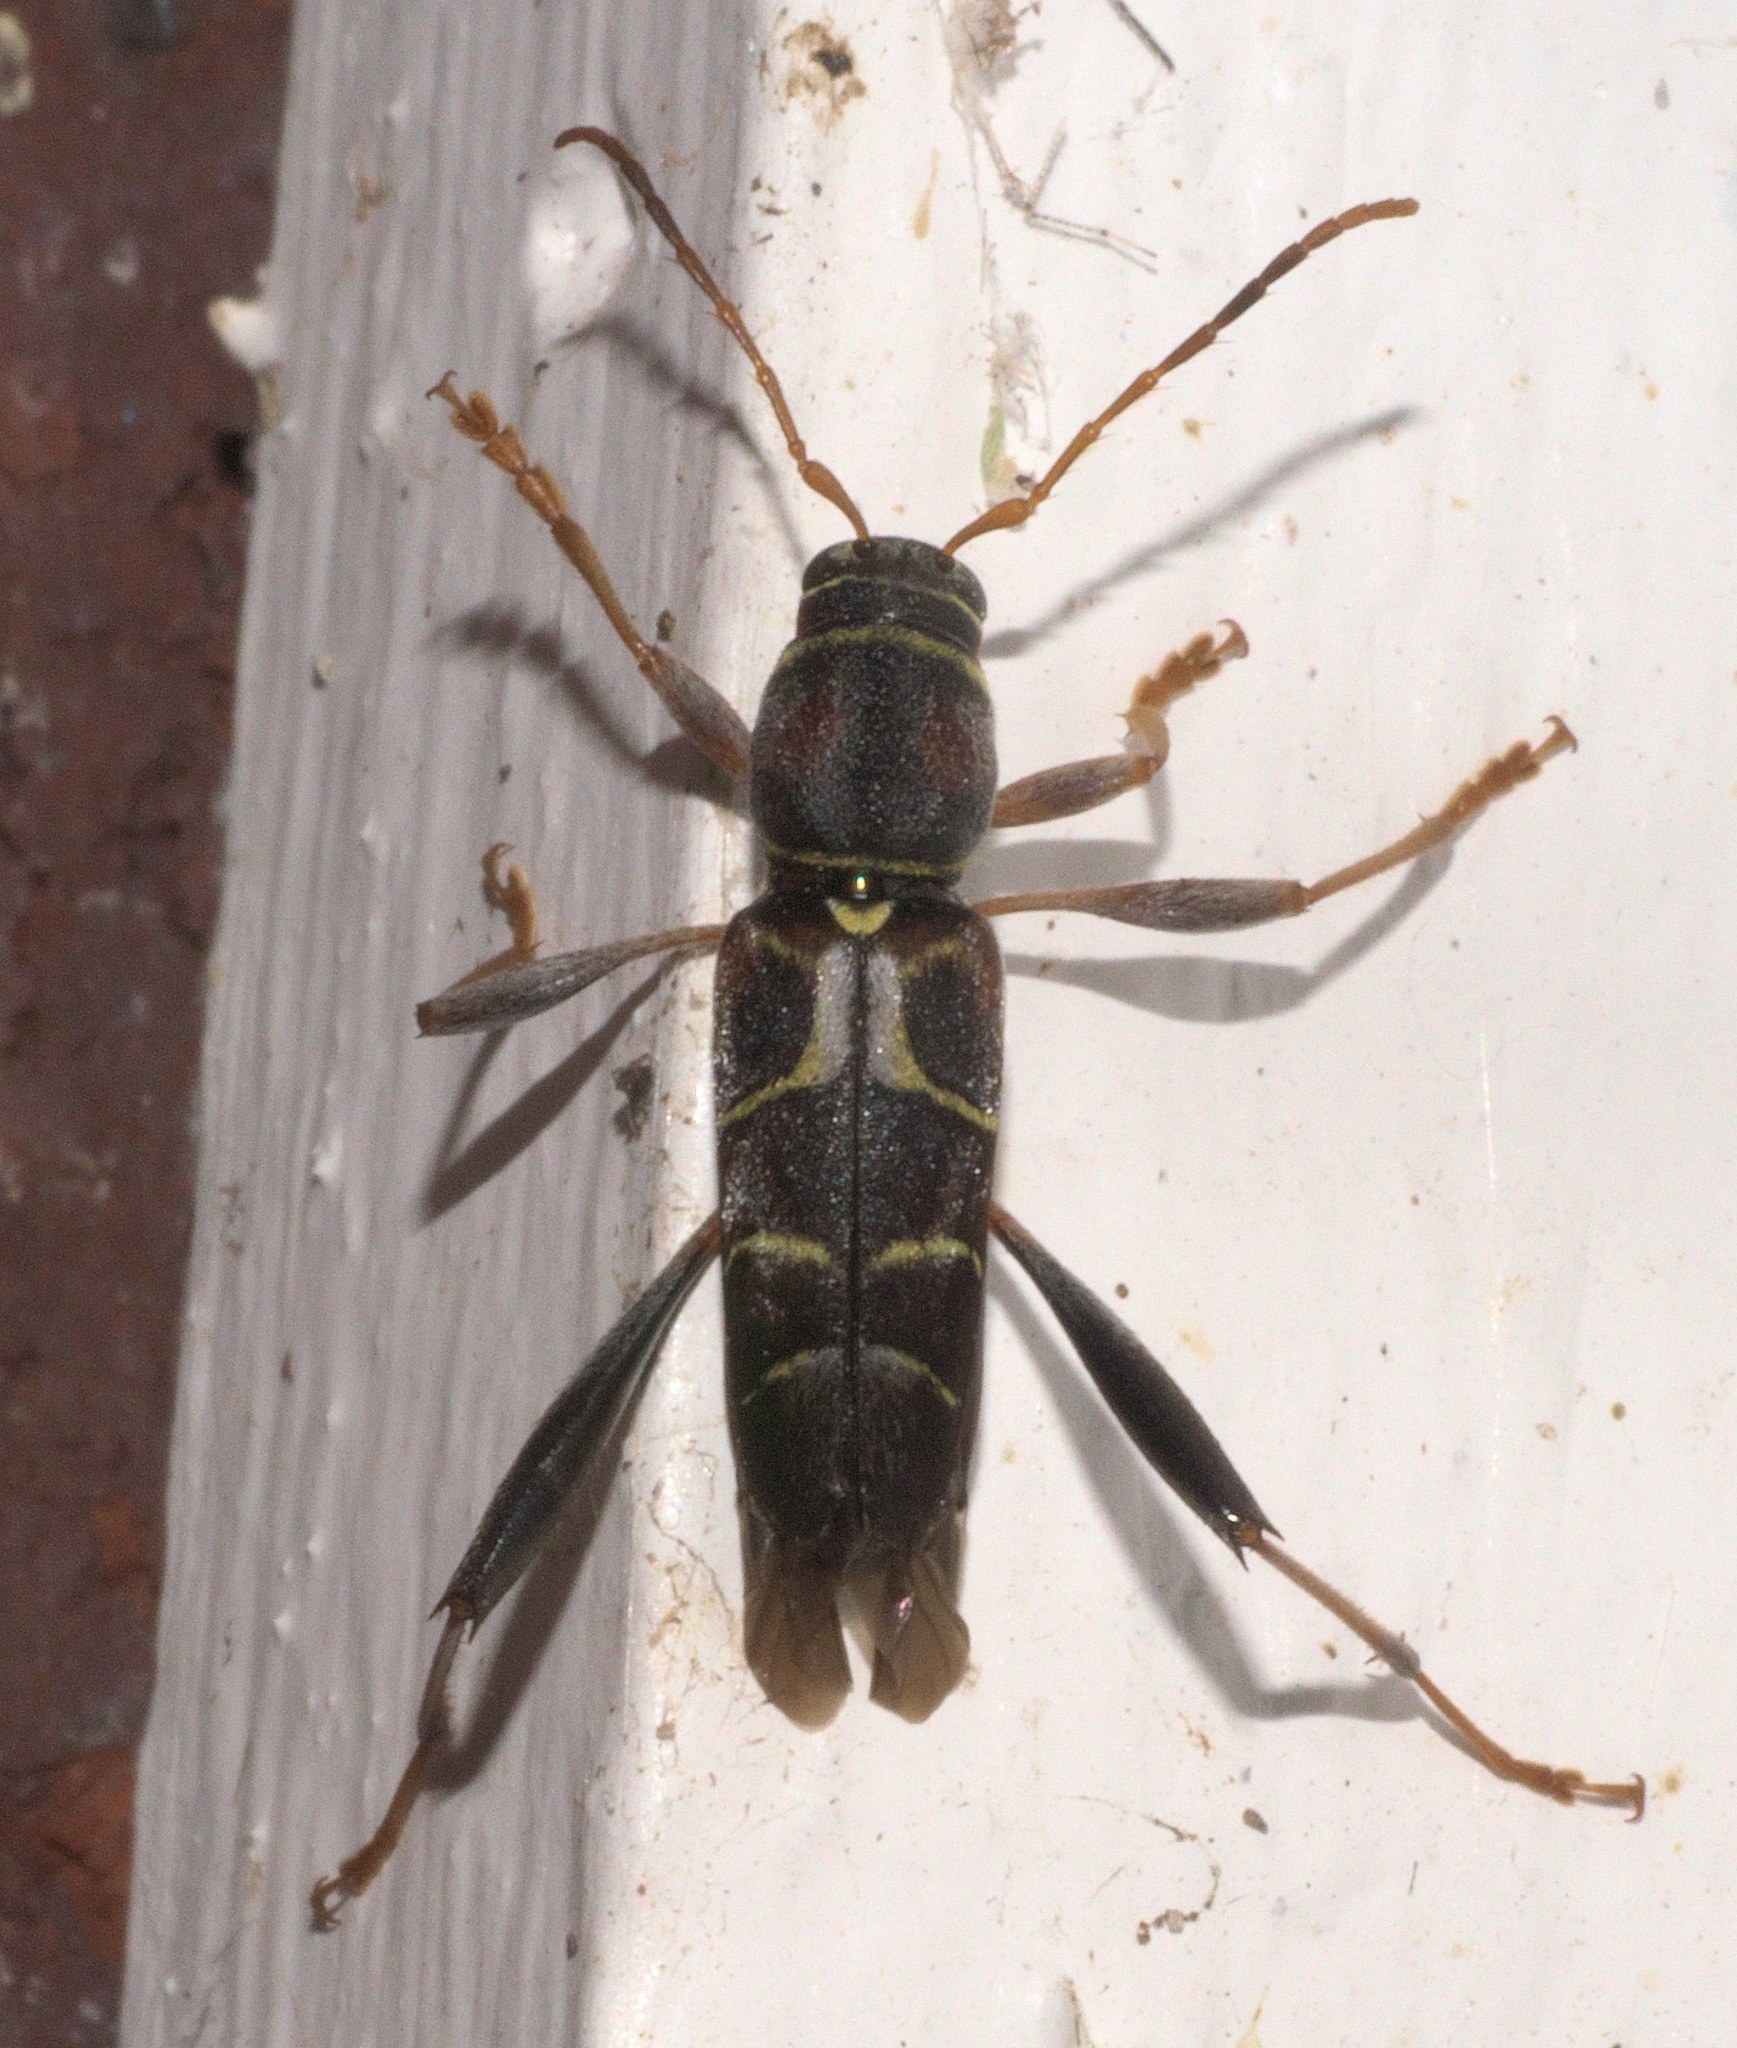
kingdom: Animalia
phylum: Arthropoda
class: Insecta
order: Coleoptera
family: Cerambycidae
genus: Neoclytus
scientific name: Neoclytus mucronatus
